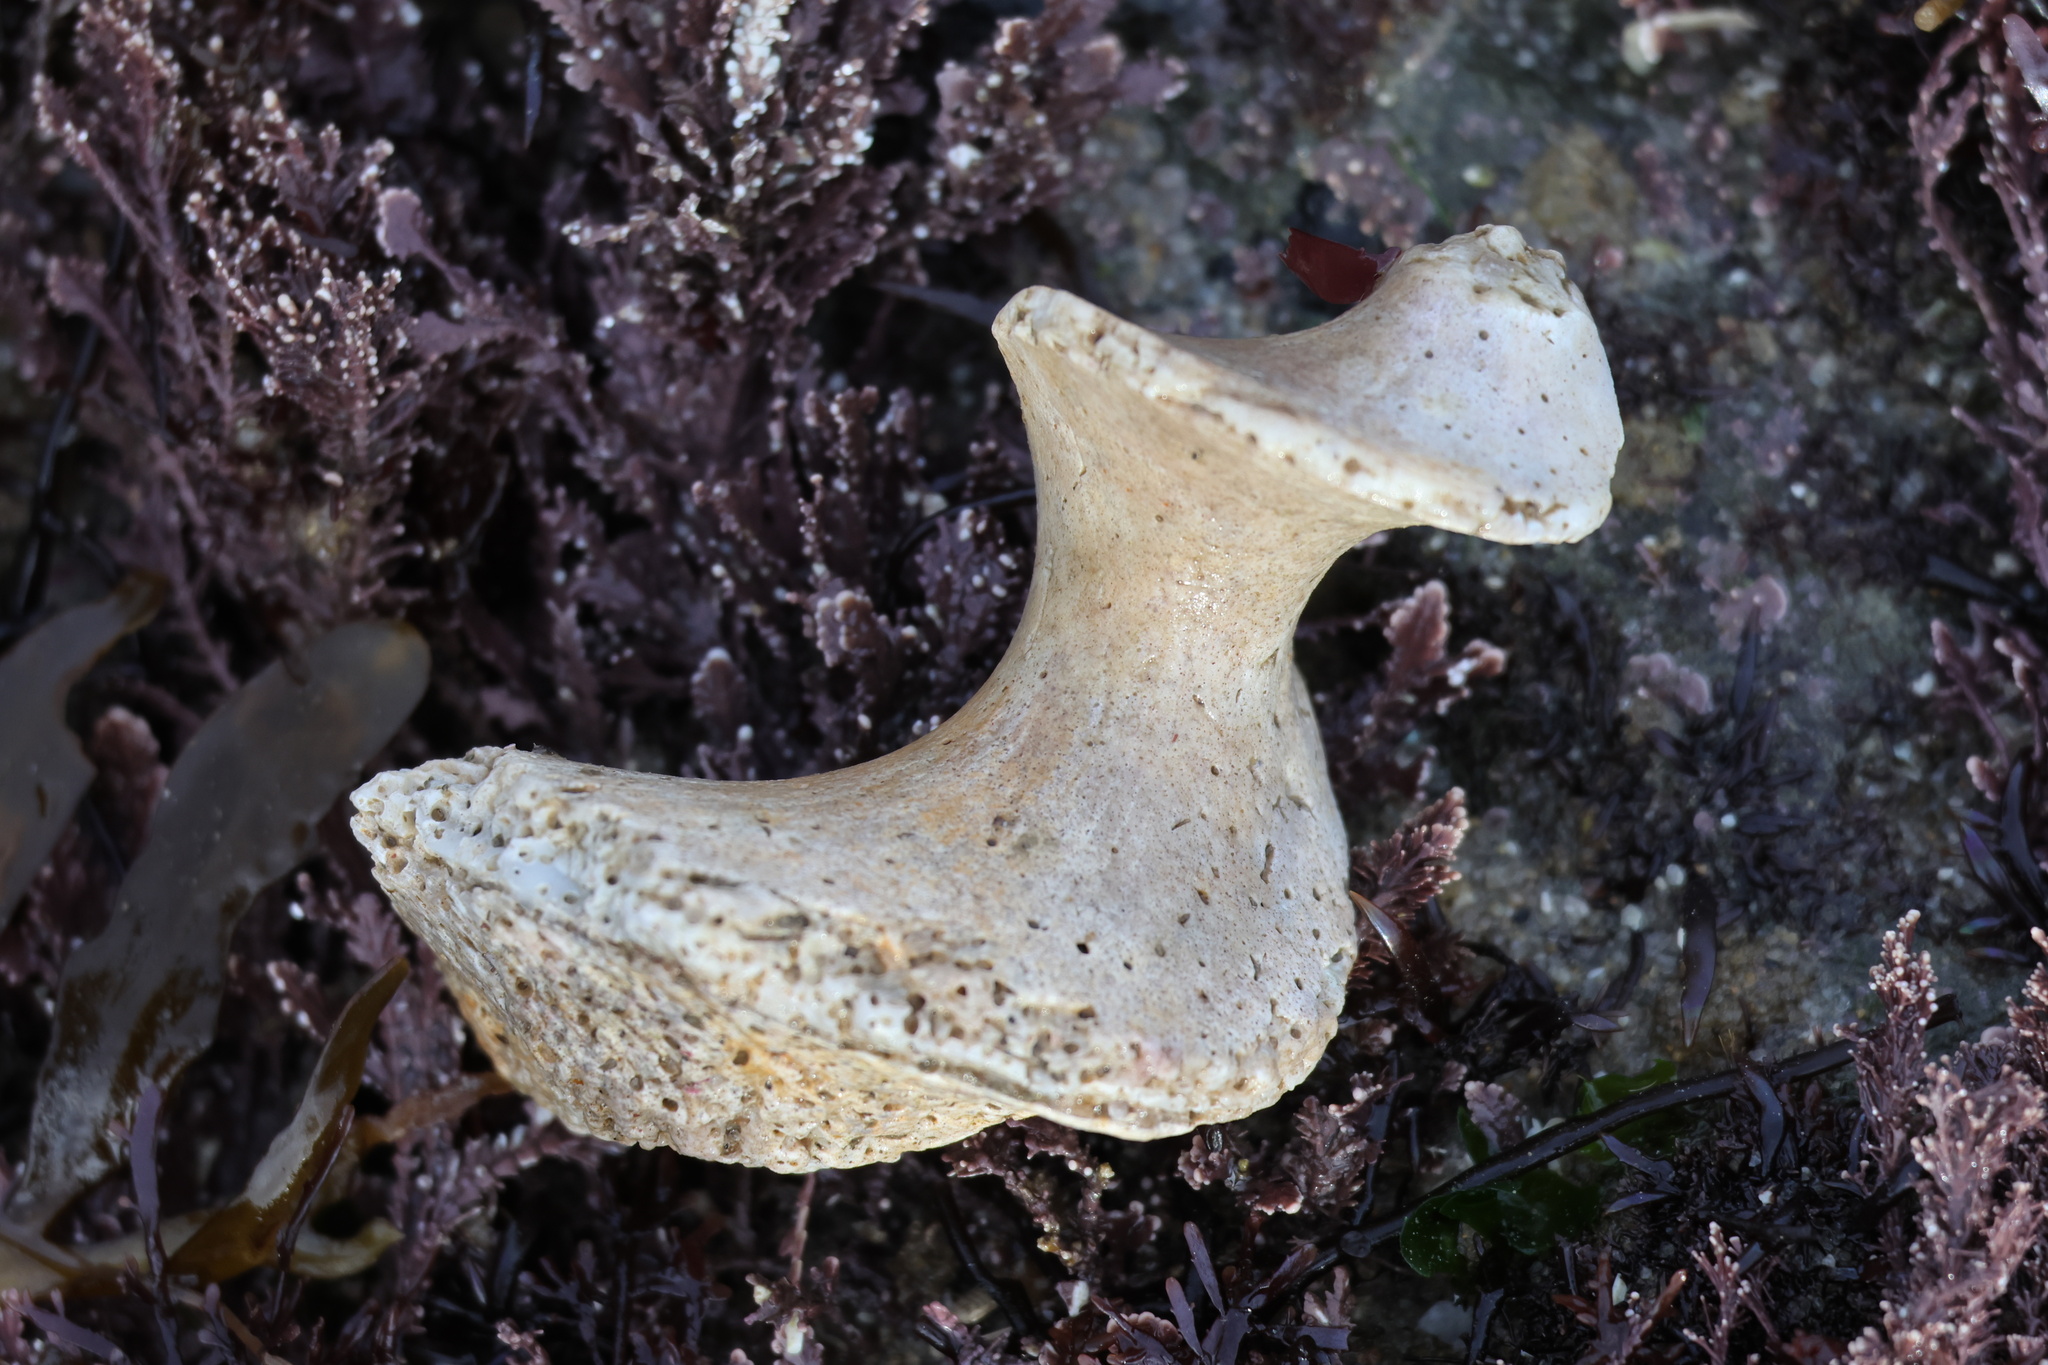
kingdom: Animalia
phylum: Mollusca
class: Gastropoda
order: Trochida
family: Turbinidae
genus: Megastraea
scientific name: Megastraea undosa
